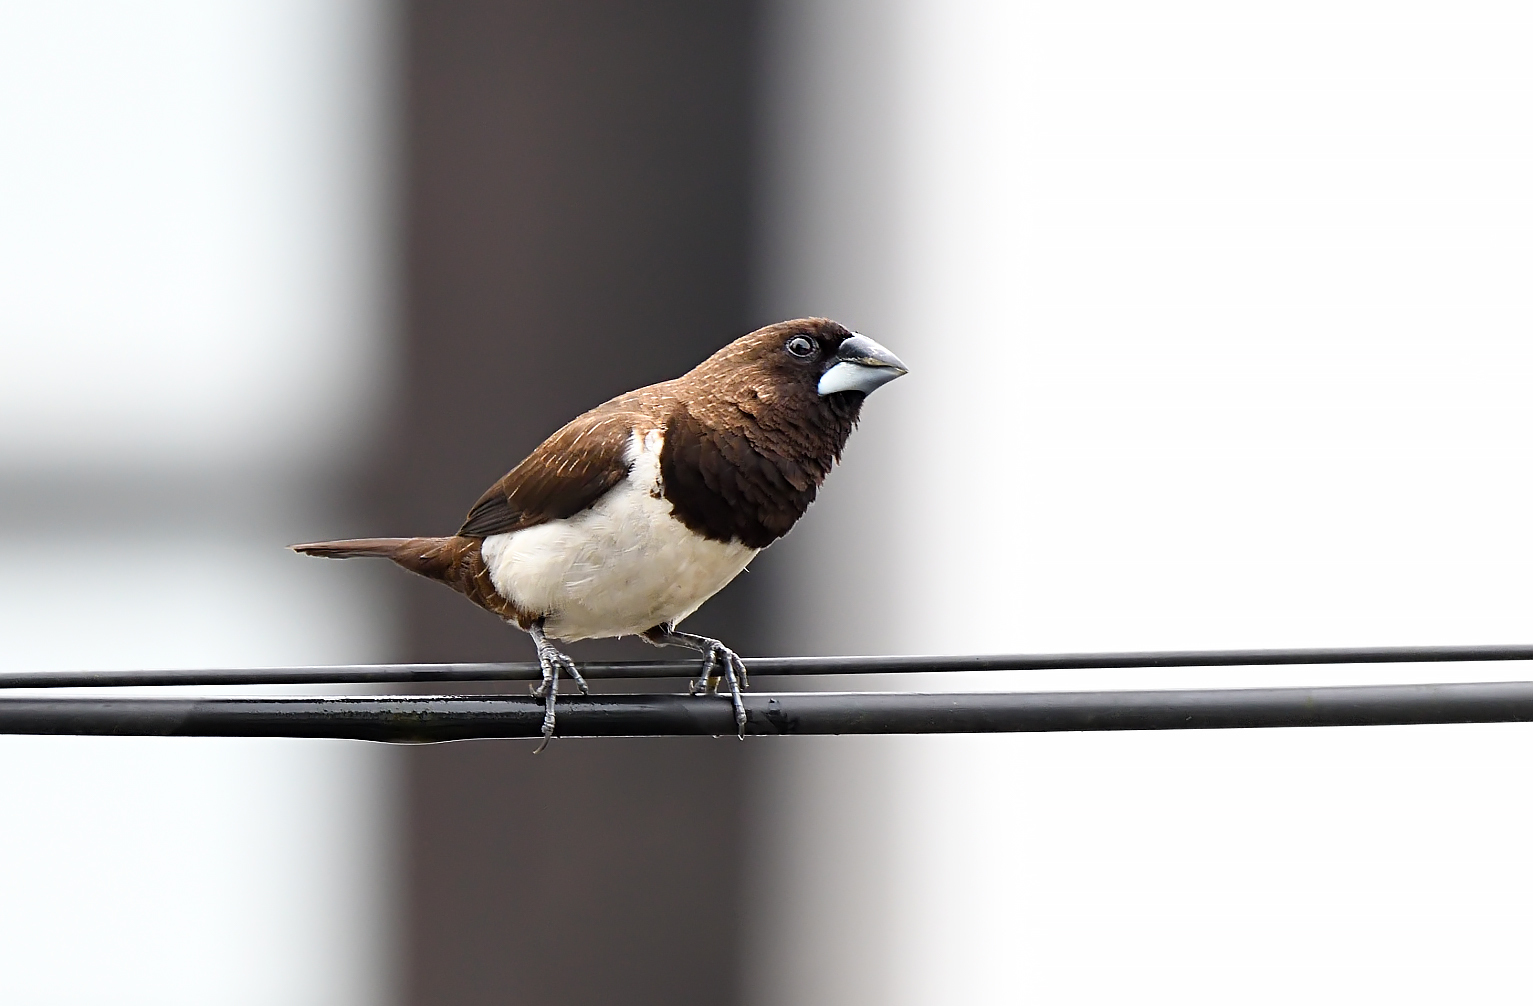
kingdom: Animalia
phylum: Chordata
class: Aves
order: Passeriformes
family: Estrildidae
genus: Lonchura
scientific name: Lonchura striata
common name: White-rumped munia
